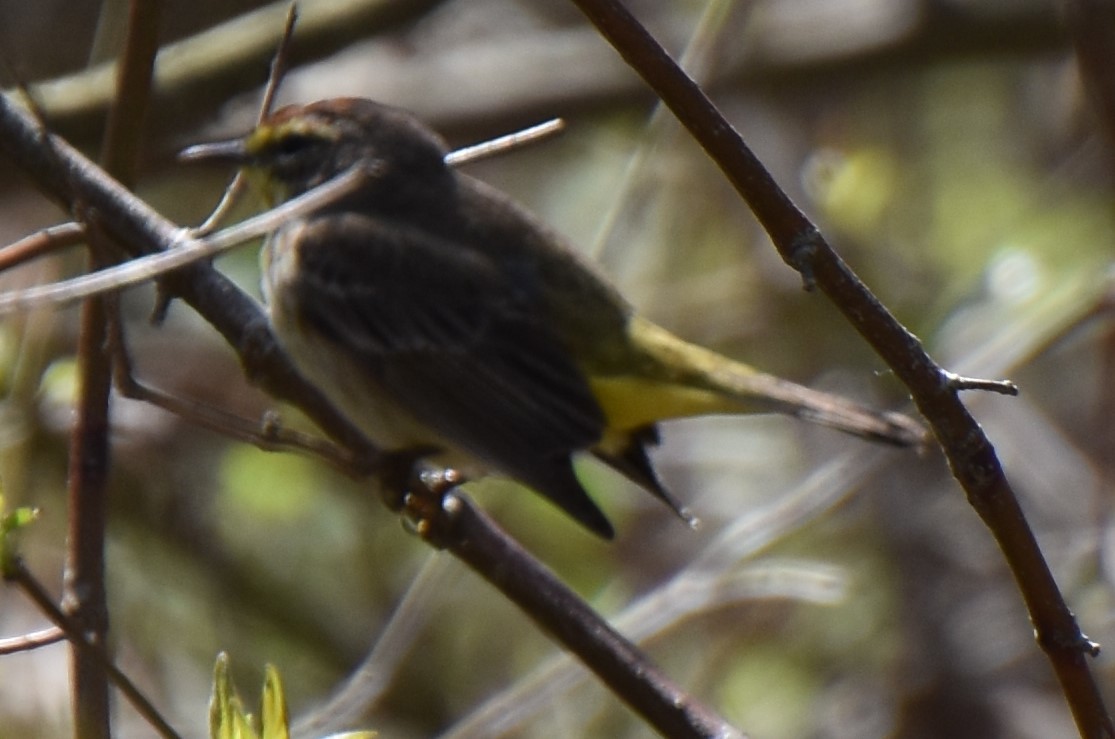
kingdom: Animalia
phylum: Chordata
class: Aves
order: Passeriformes
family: Parulidae
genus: Setophaga
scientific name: Setophaga palmarum
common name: Palm warbler
